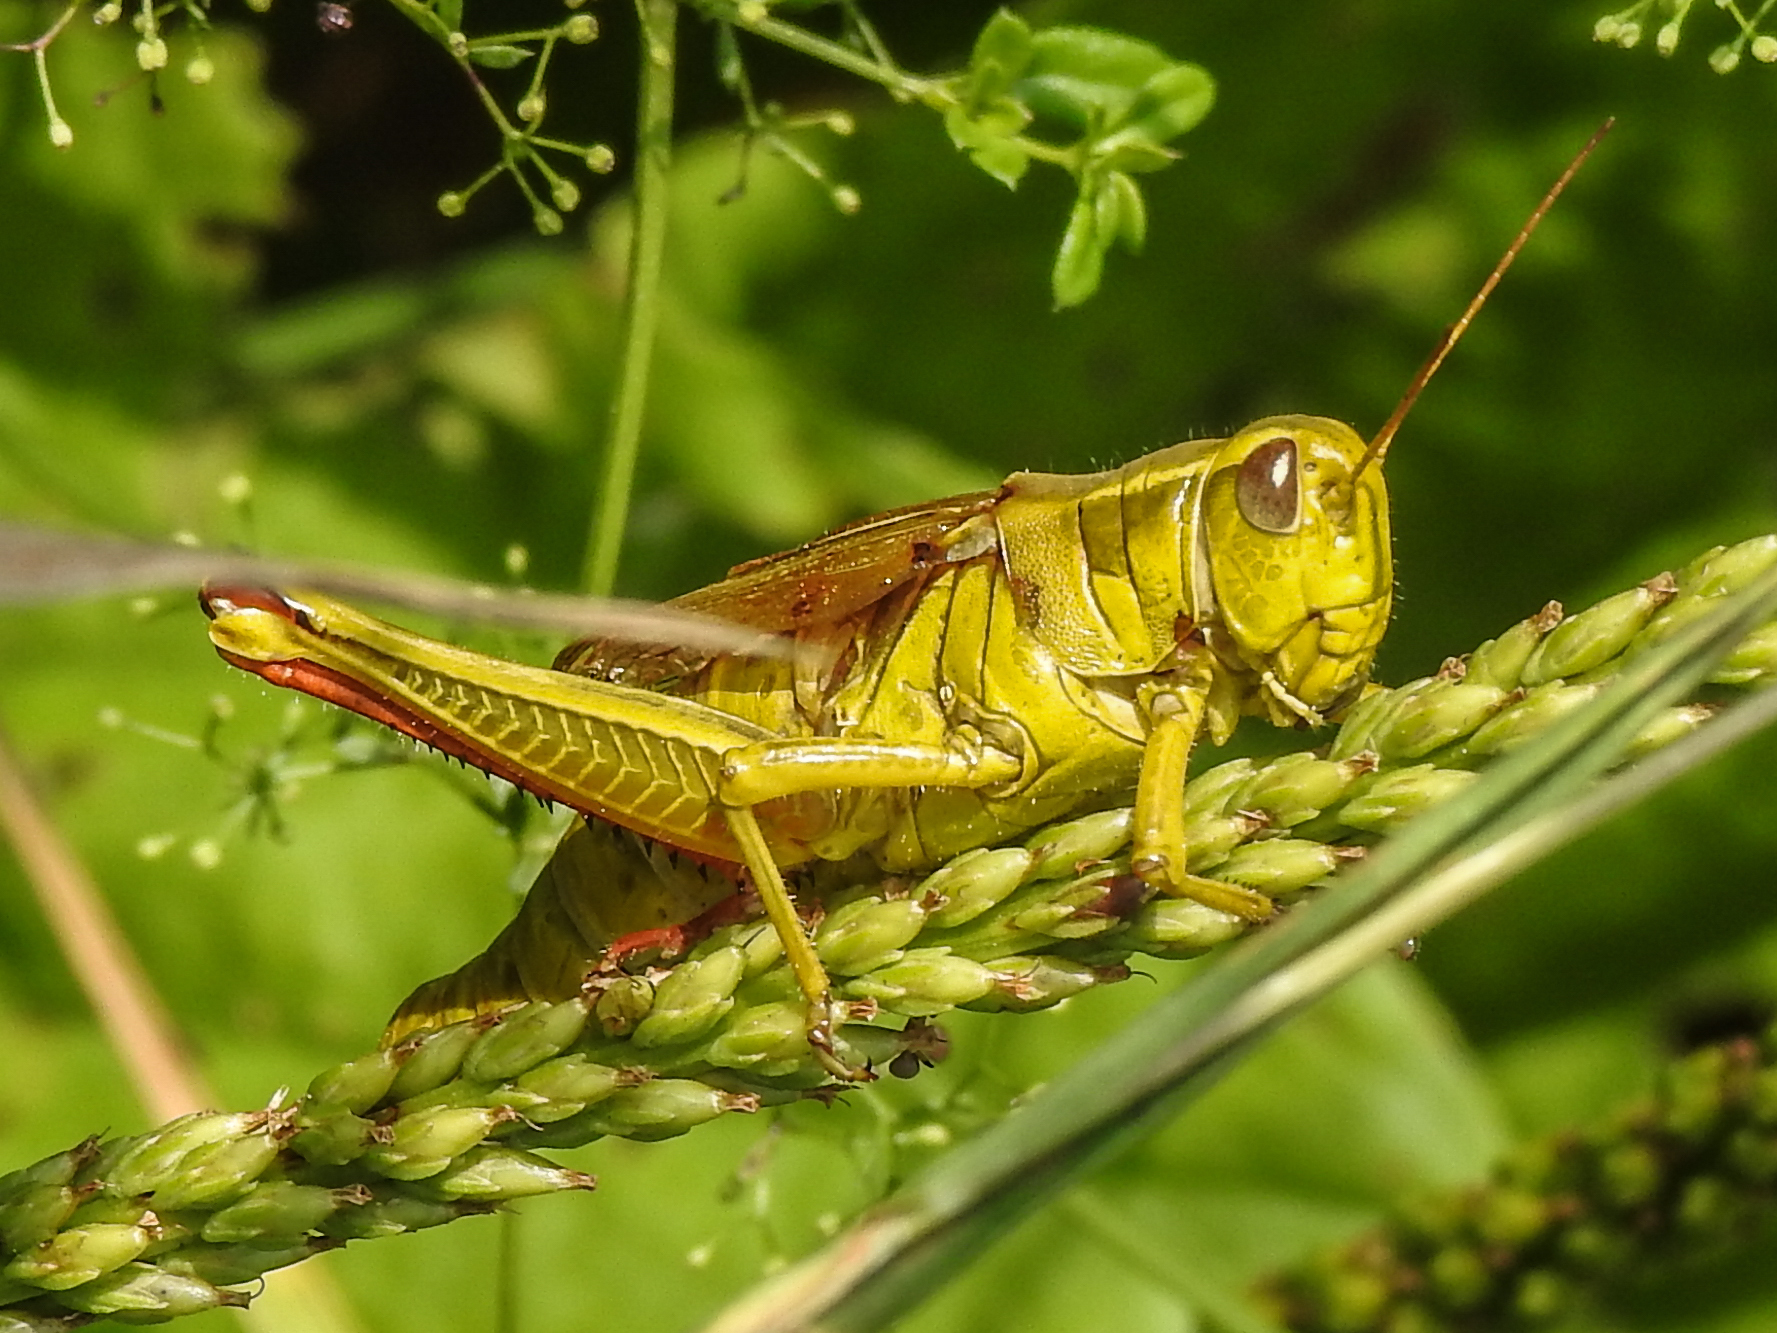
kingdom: Animalia
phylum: Arthropoda
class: Insecta
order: Orthoptera
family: Acrididae
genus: Melanoplus
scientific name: Melanoplus bivittatus
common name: Two-striped grasshopper
